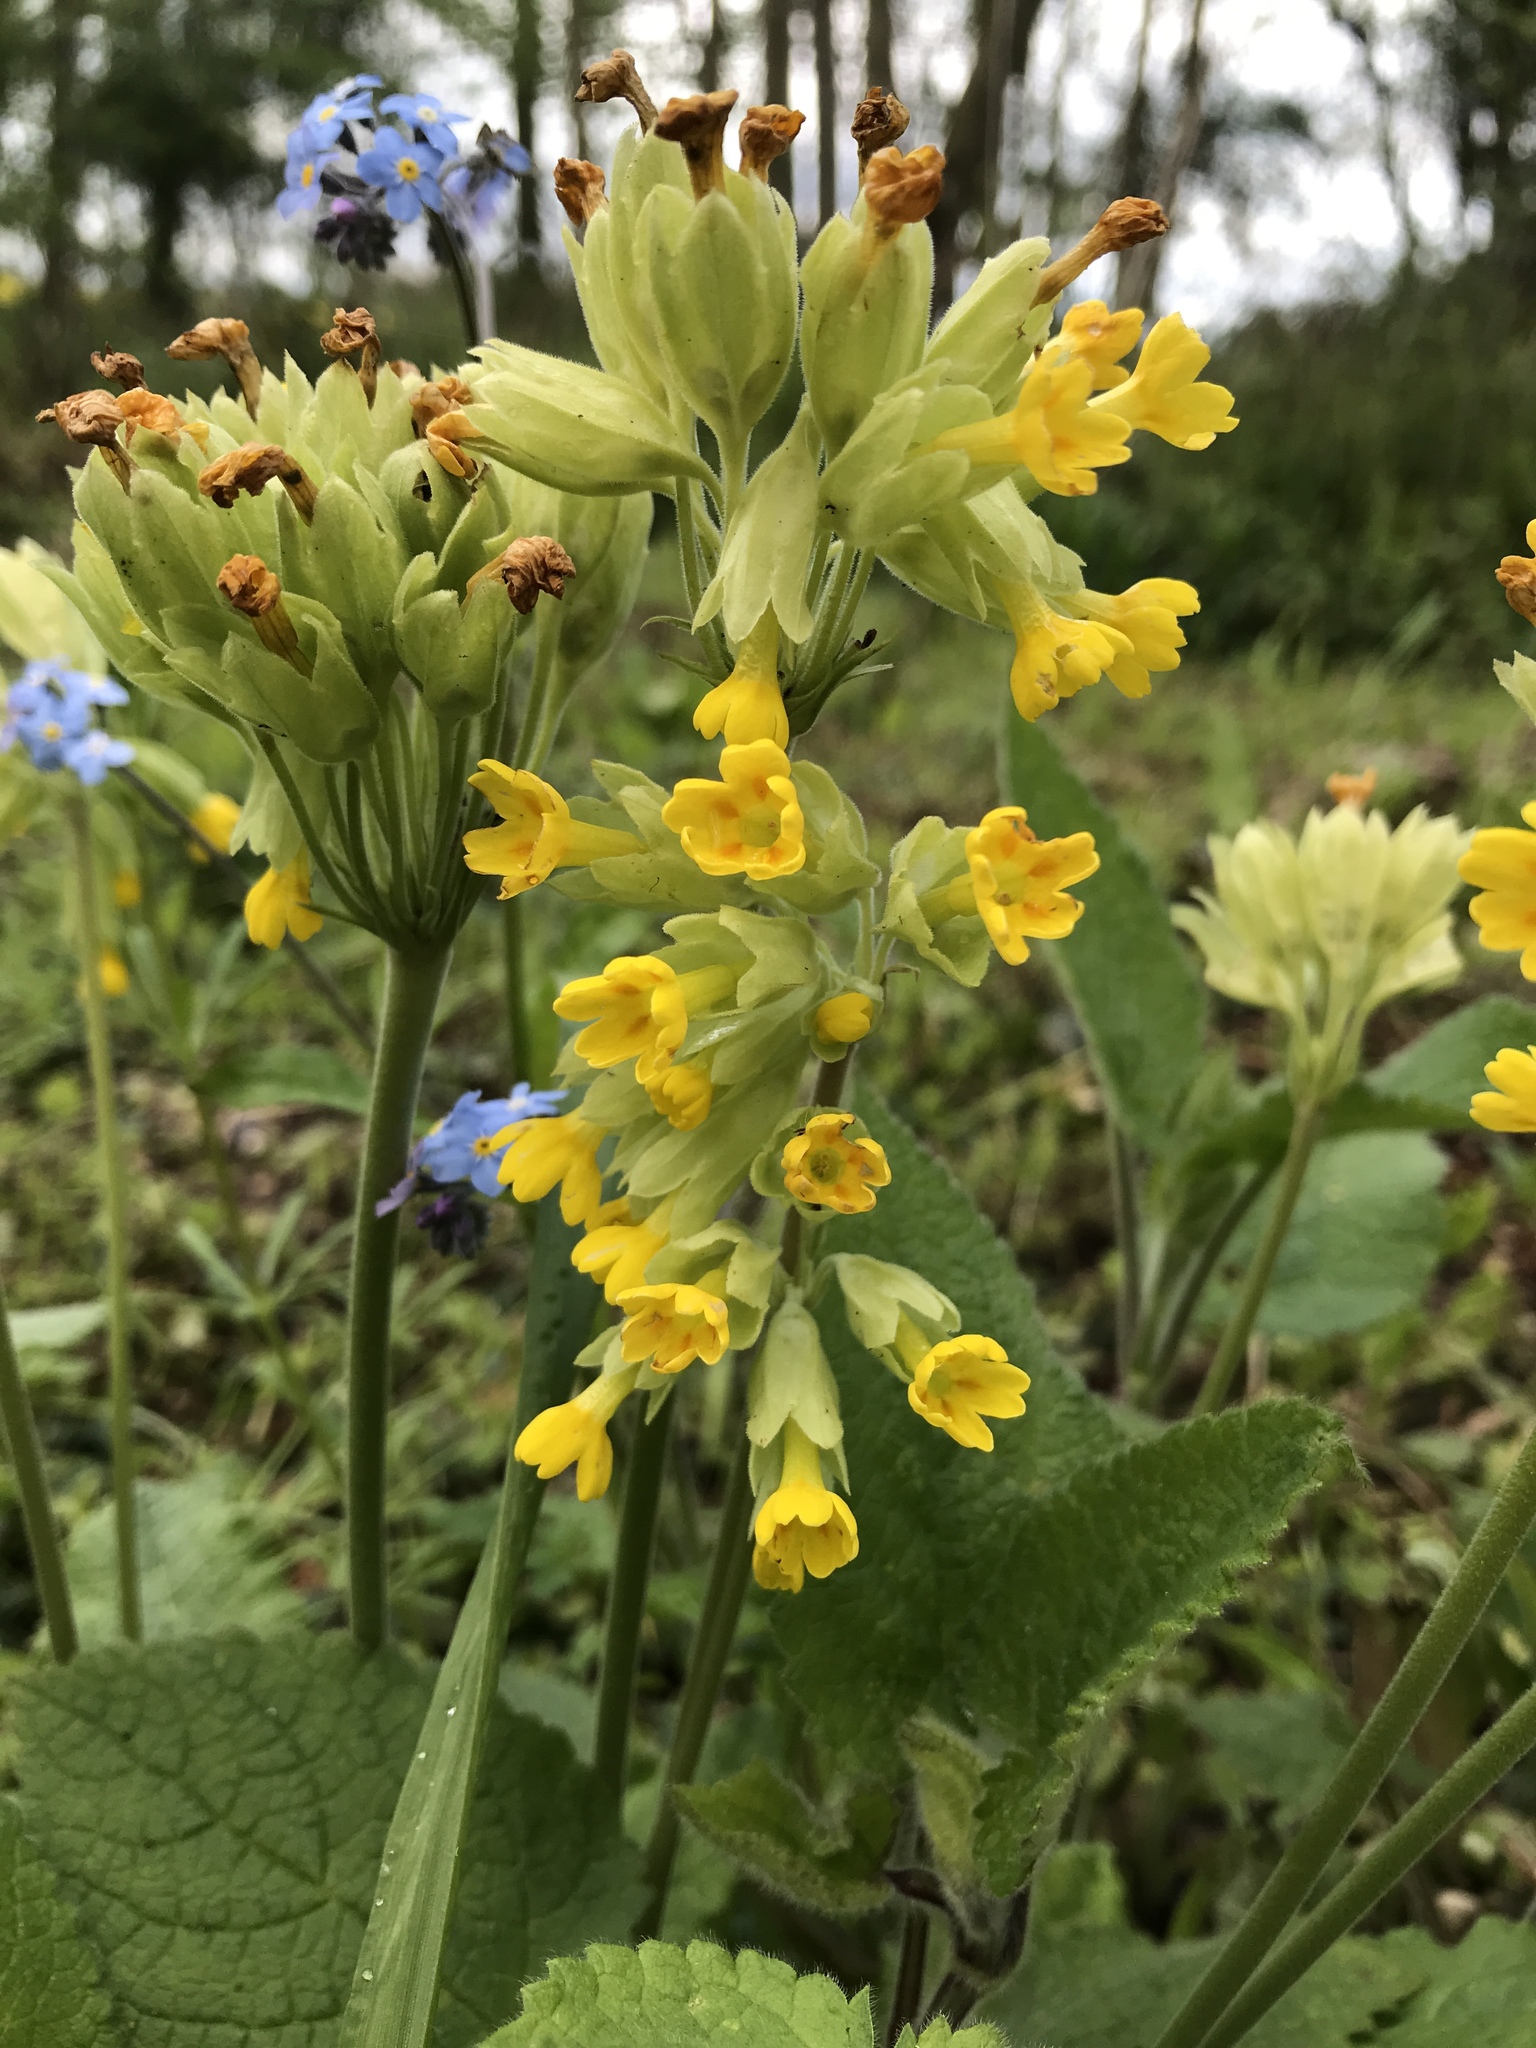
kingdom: Plantae
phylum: Tracheophyta
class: Magnoliopsida
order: Ericales
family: Primulaceae
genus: Primula
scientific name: Primula veris
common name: Cowslip
